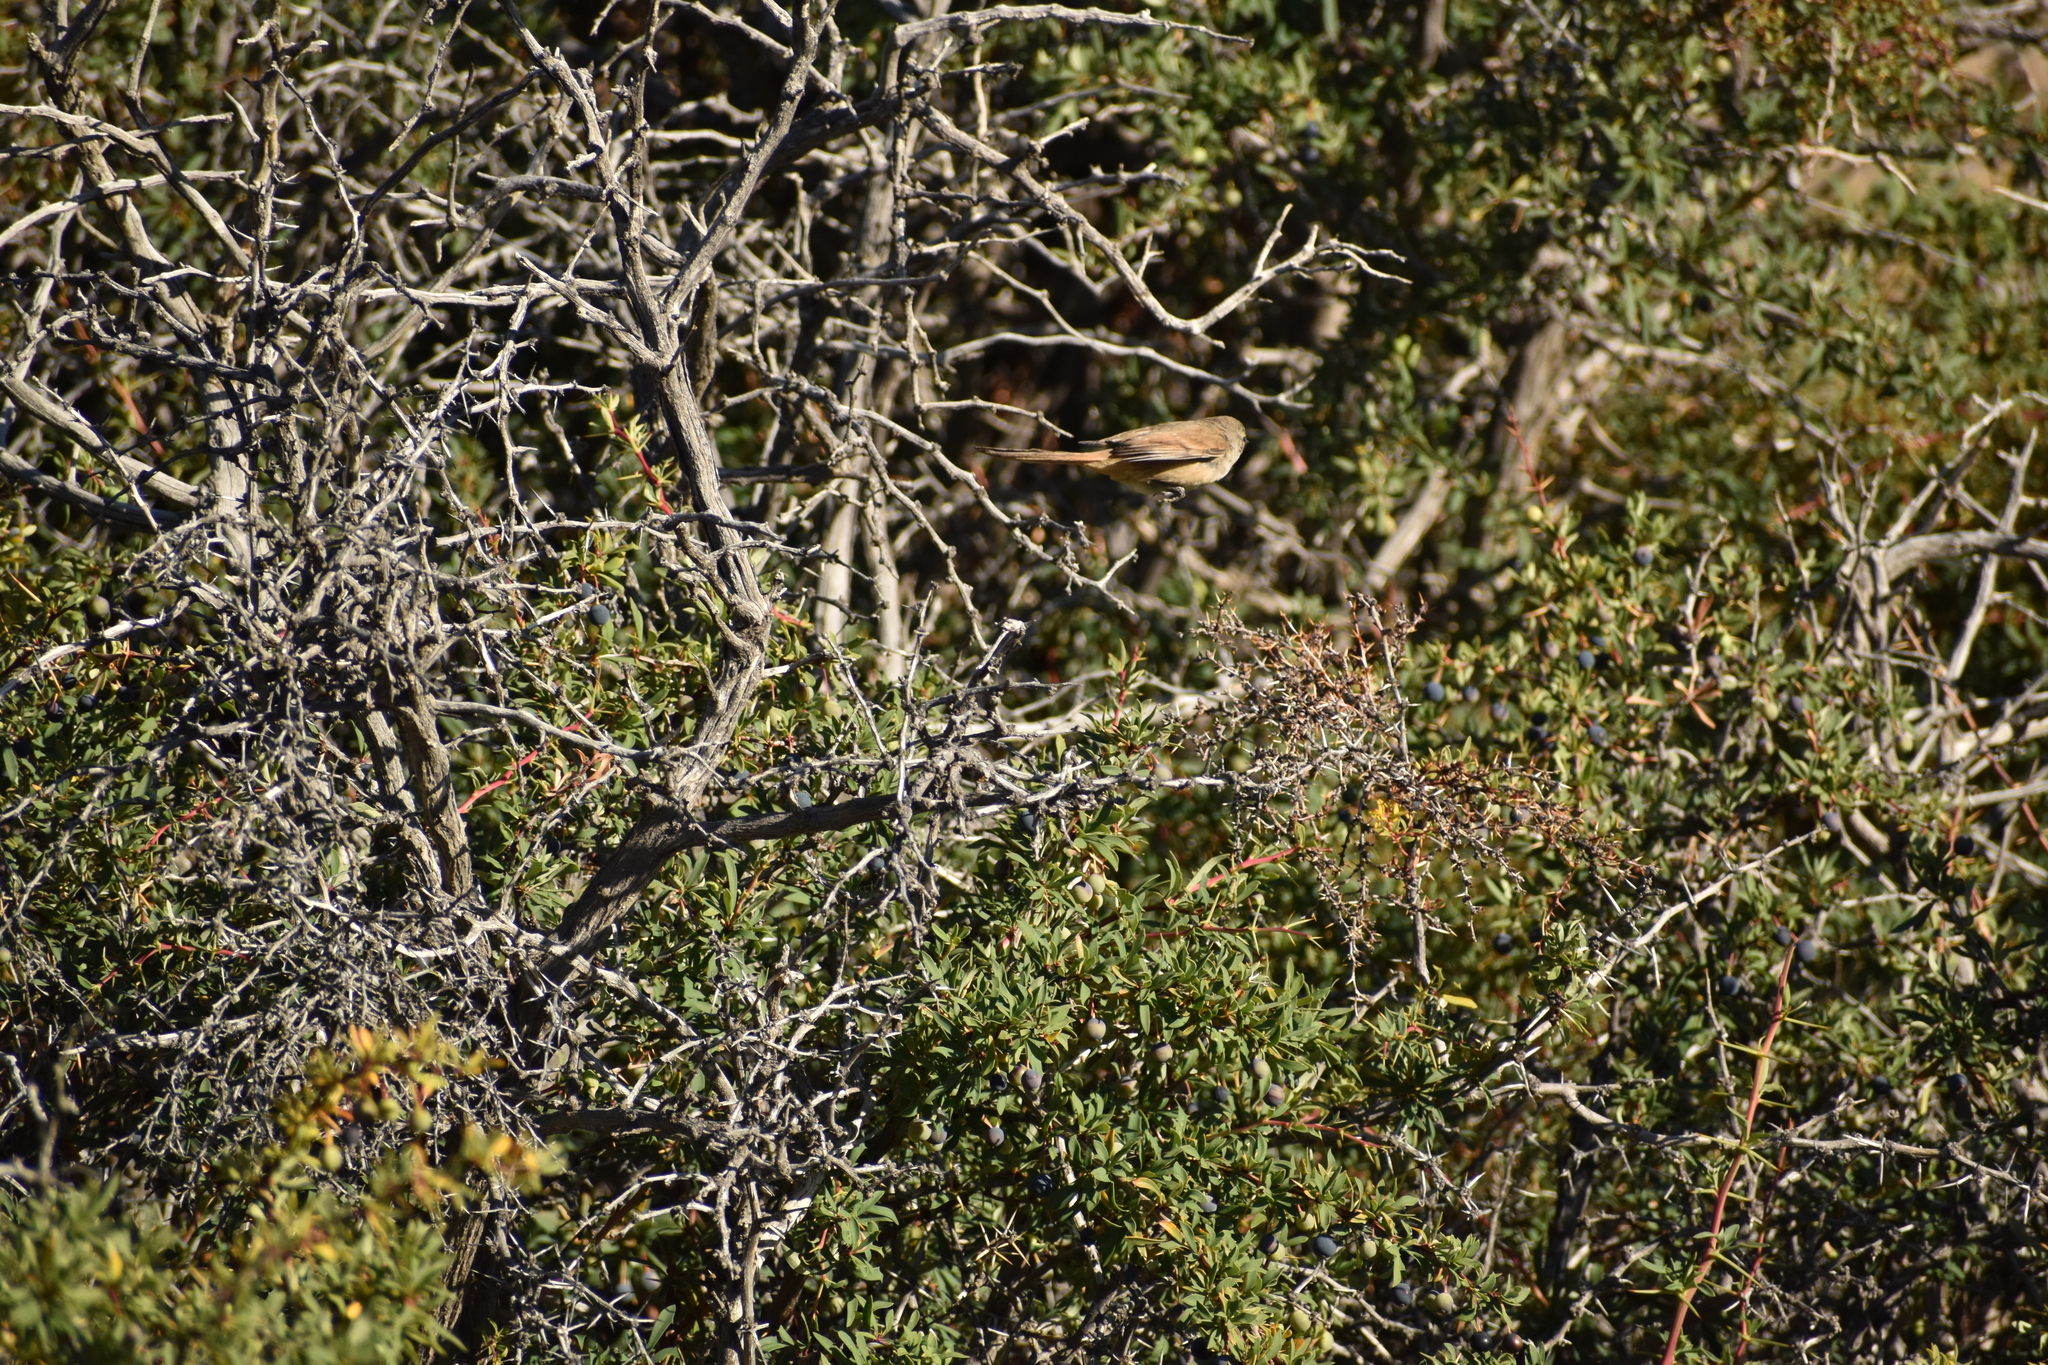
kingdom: Animalia
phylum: Chordata
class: Aves
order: Passeriformes
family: Furnariidae
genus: Asthenes
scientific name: Asthenes pyrrholeuca
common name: Sharp-billed canastero
